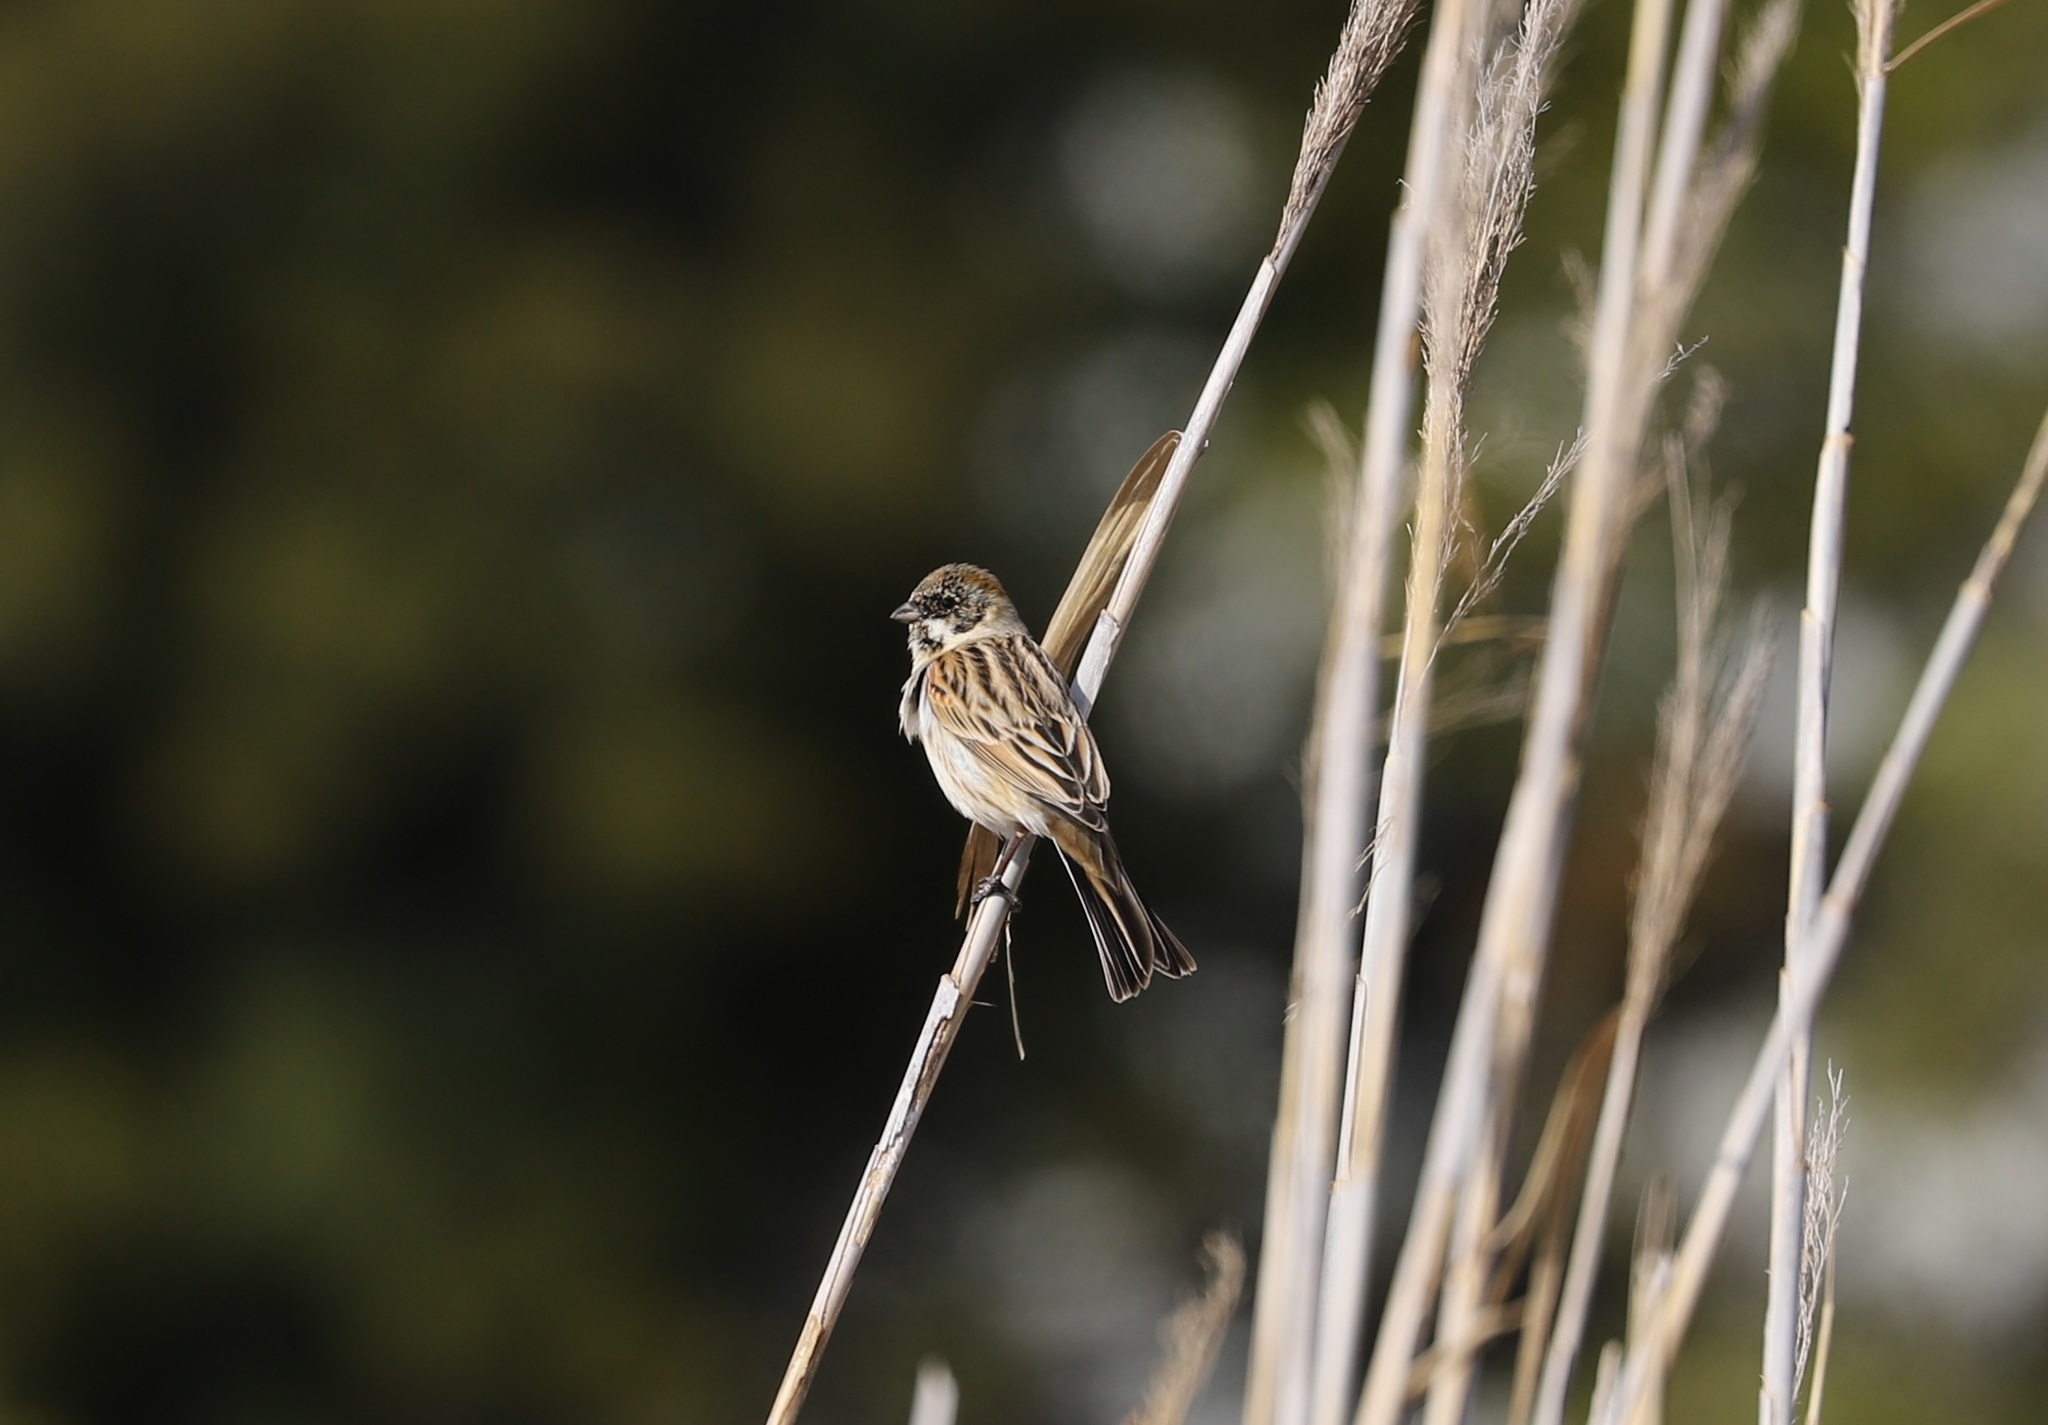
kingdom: Animalia
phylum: Chordata
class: Aves
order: Passeriformes
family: Emberizidae
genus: Emberiza
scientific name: Emberiza schoeniclus
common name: Reed bunting
